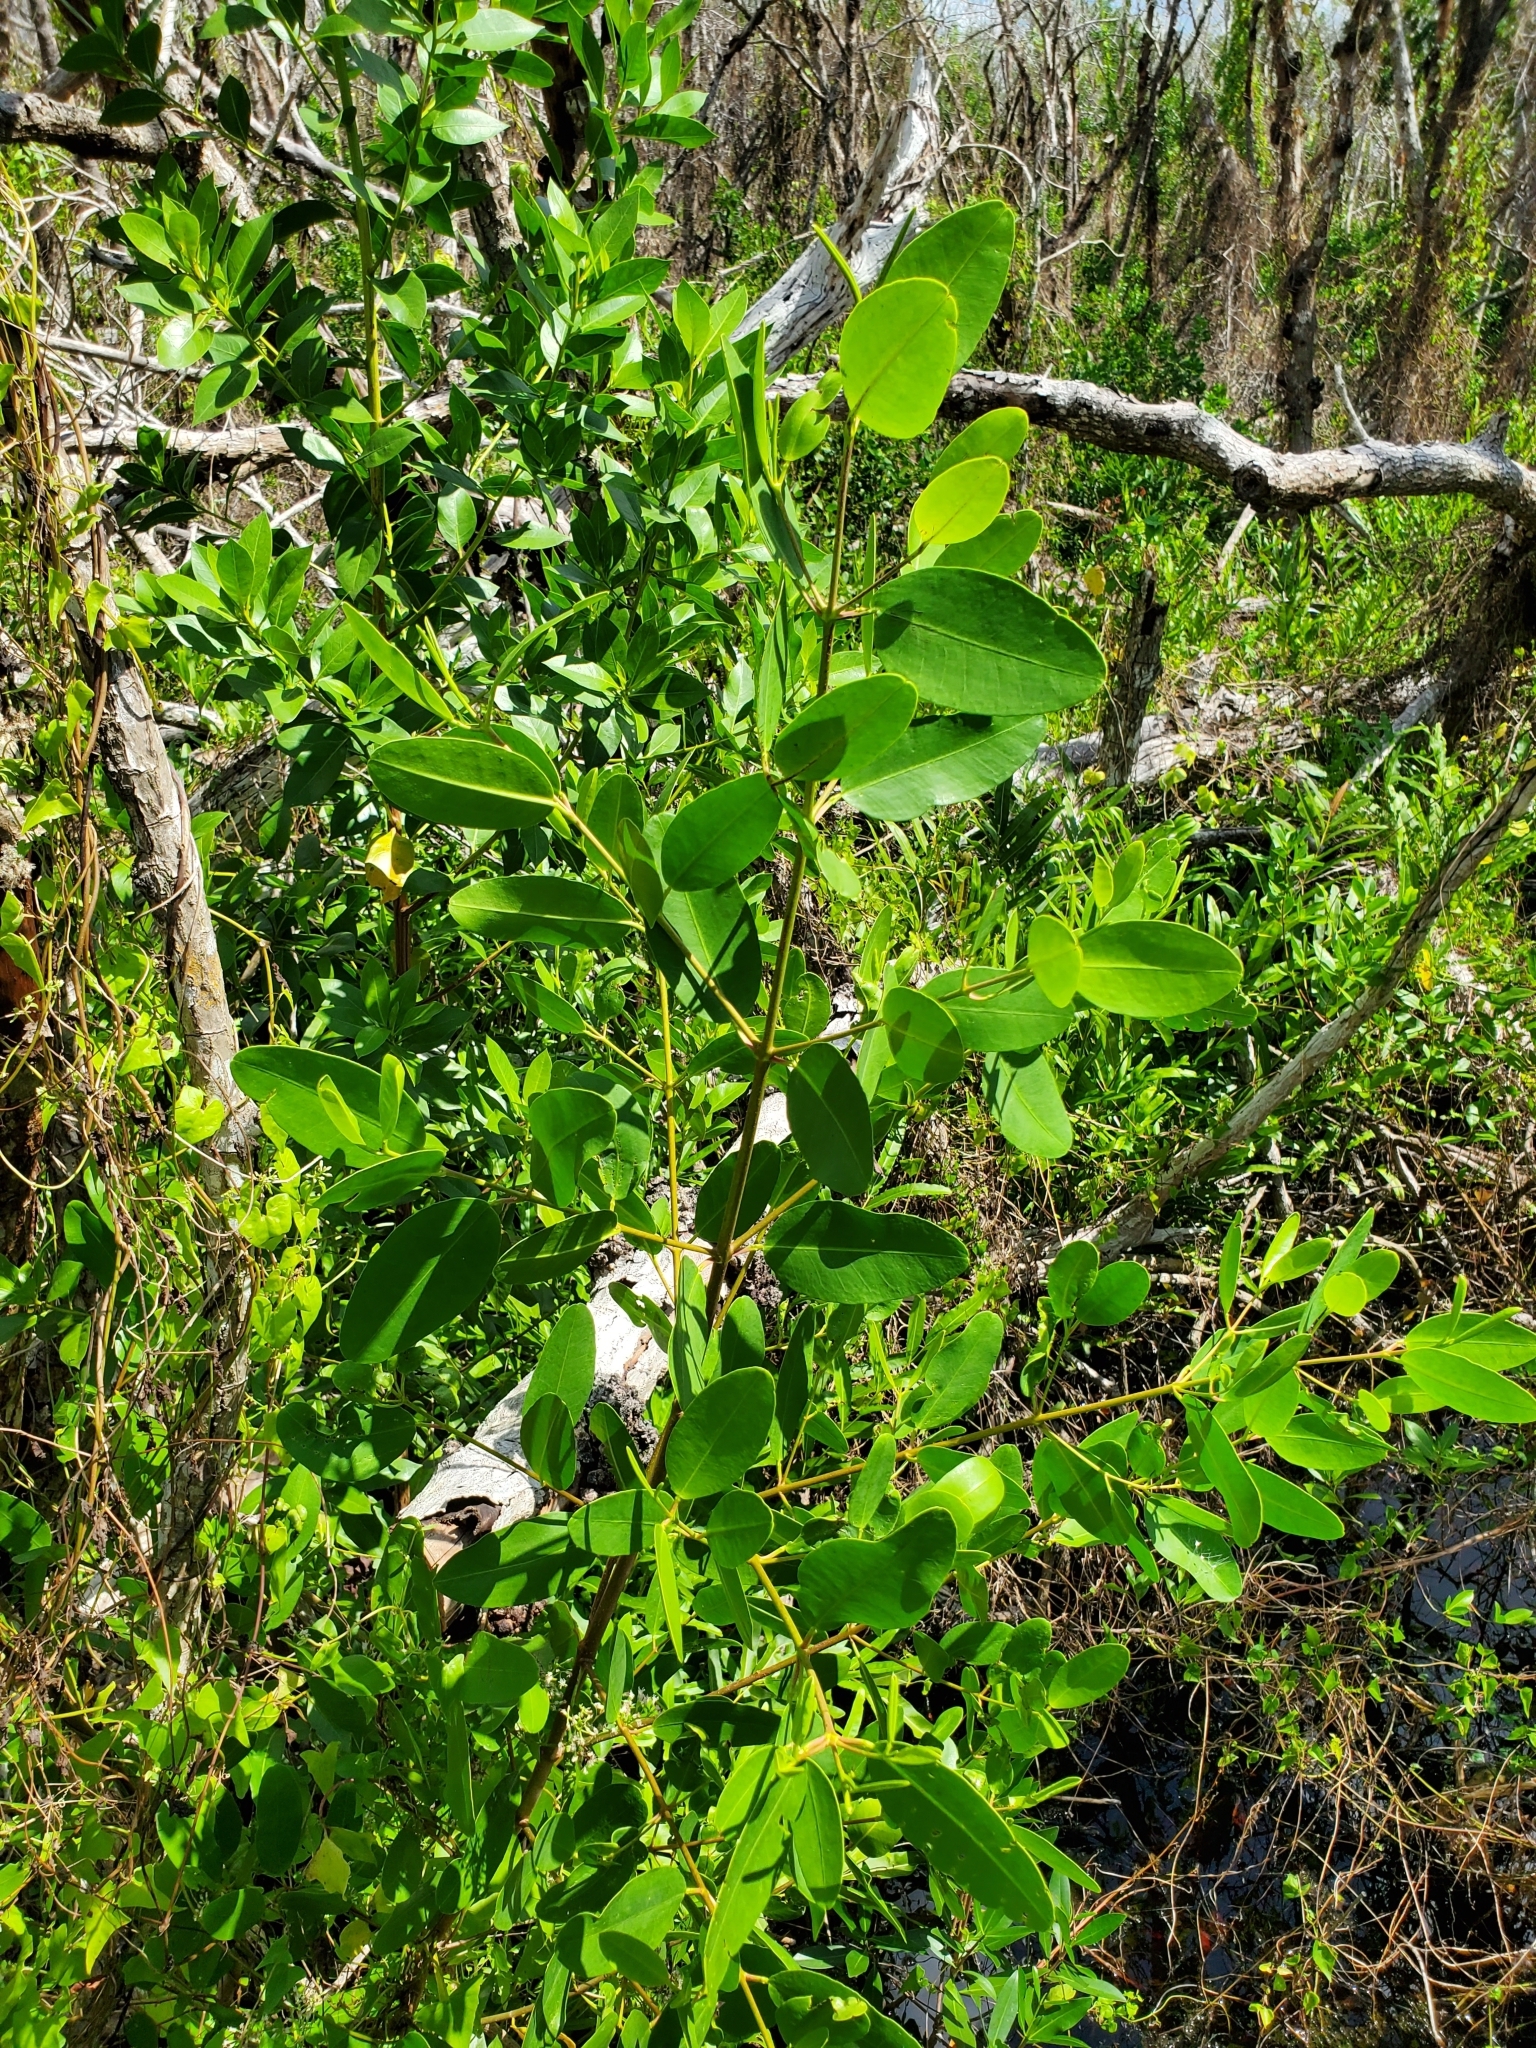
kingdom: Plantae
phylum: Tracheophyta
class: Magnoliopsida
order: Myrtales
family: Combretaceae
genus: Laguncularia
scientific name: Laguncularia racemosa
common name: White mangrove
